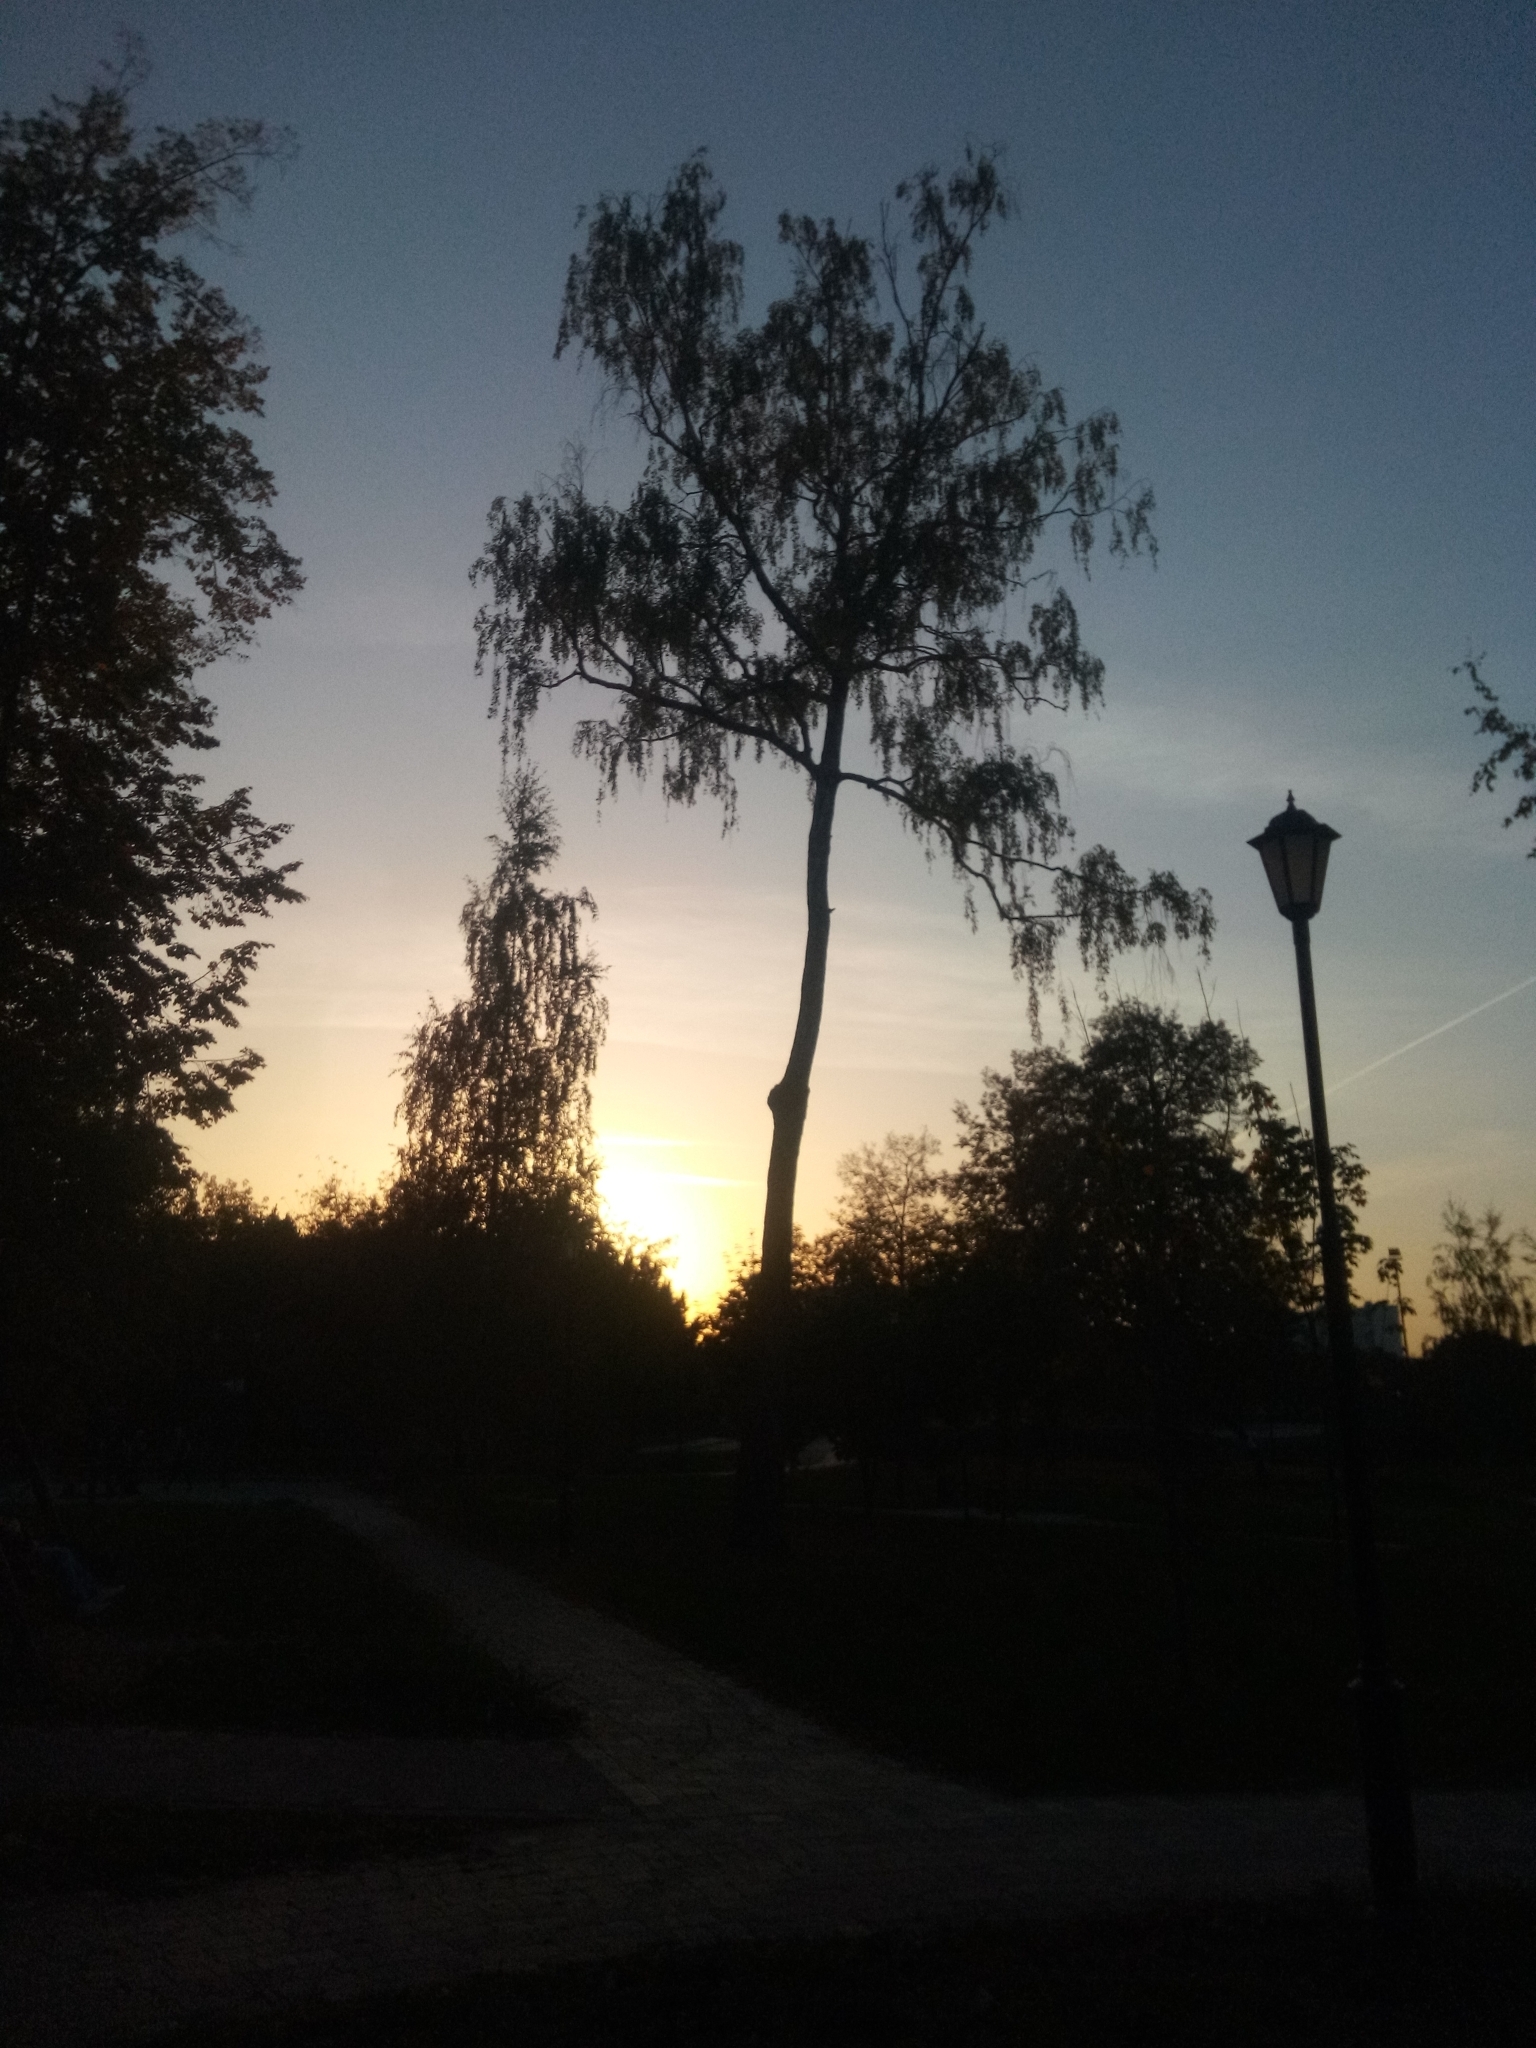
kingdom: Plantae
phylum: Tracheophyta
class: Magnoliopsida
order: Fagales
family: Betulaceae
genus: Betula
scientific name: Betula pendula
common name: Silver birch
